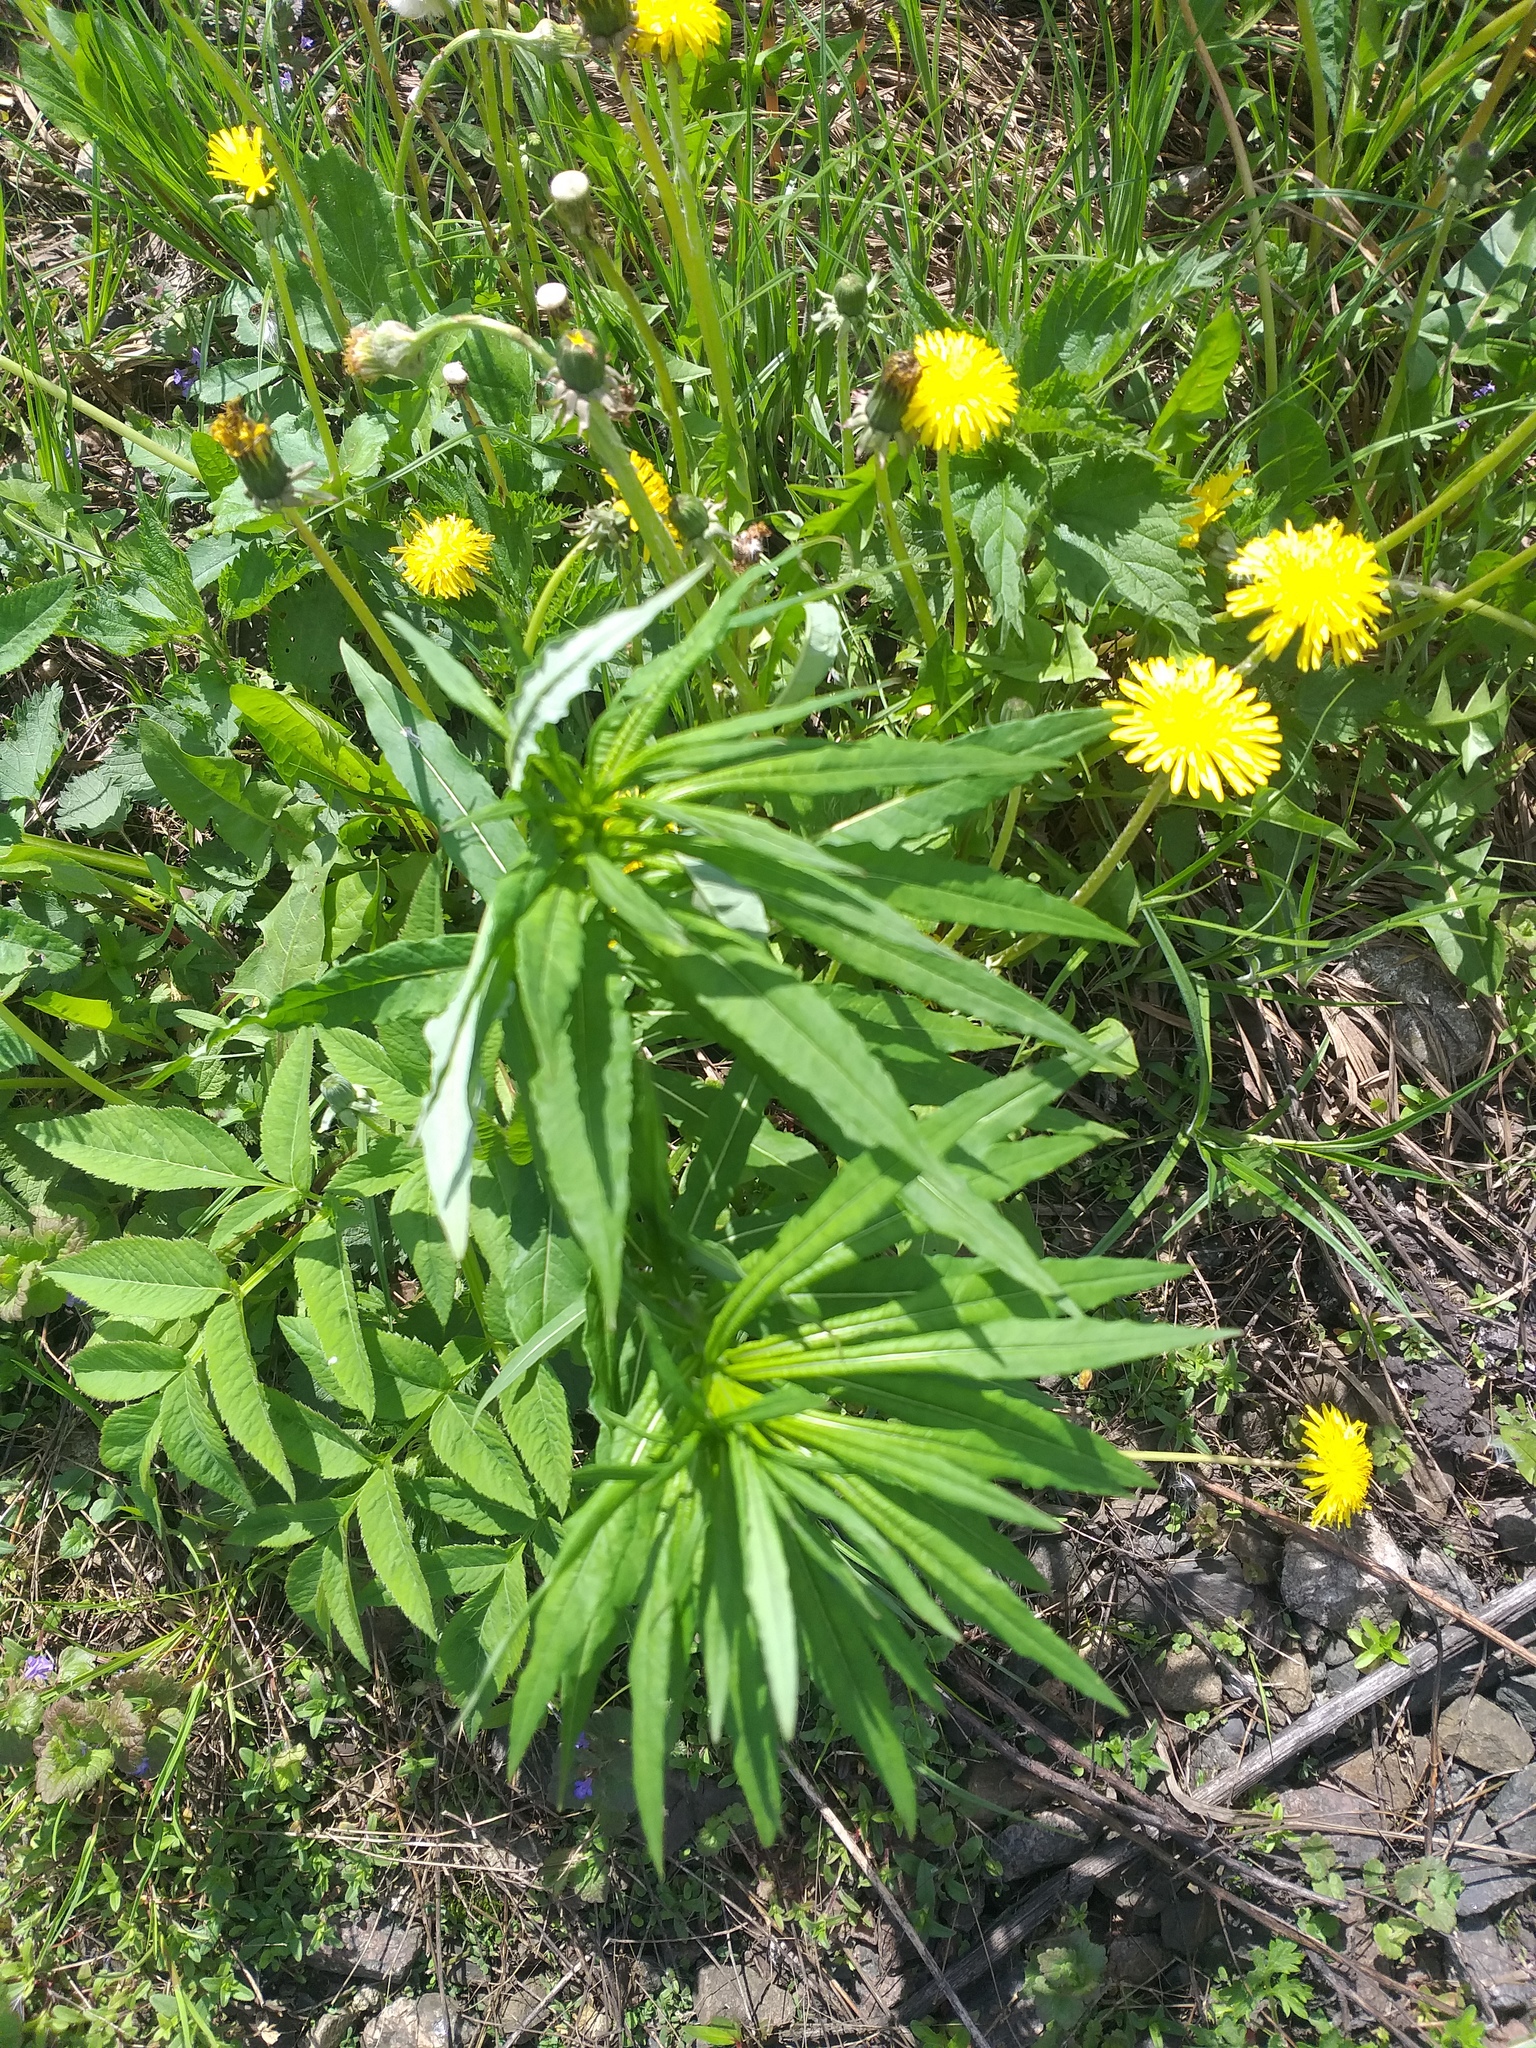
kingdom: Plantae
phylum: Tracheophyta
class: Magnoliopsida
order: Myrtales
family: Onagraceae
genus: Chamaenerion
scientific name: Chamaenerion angustifolium
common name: Fireweed
